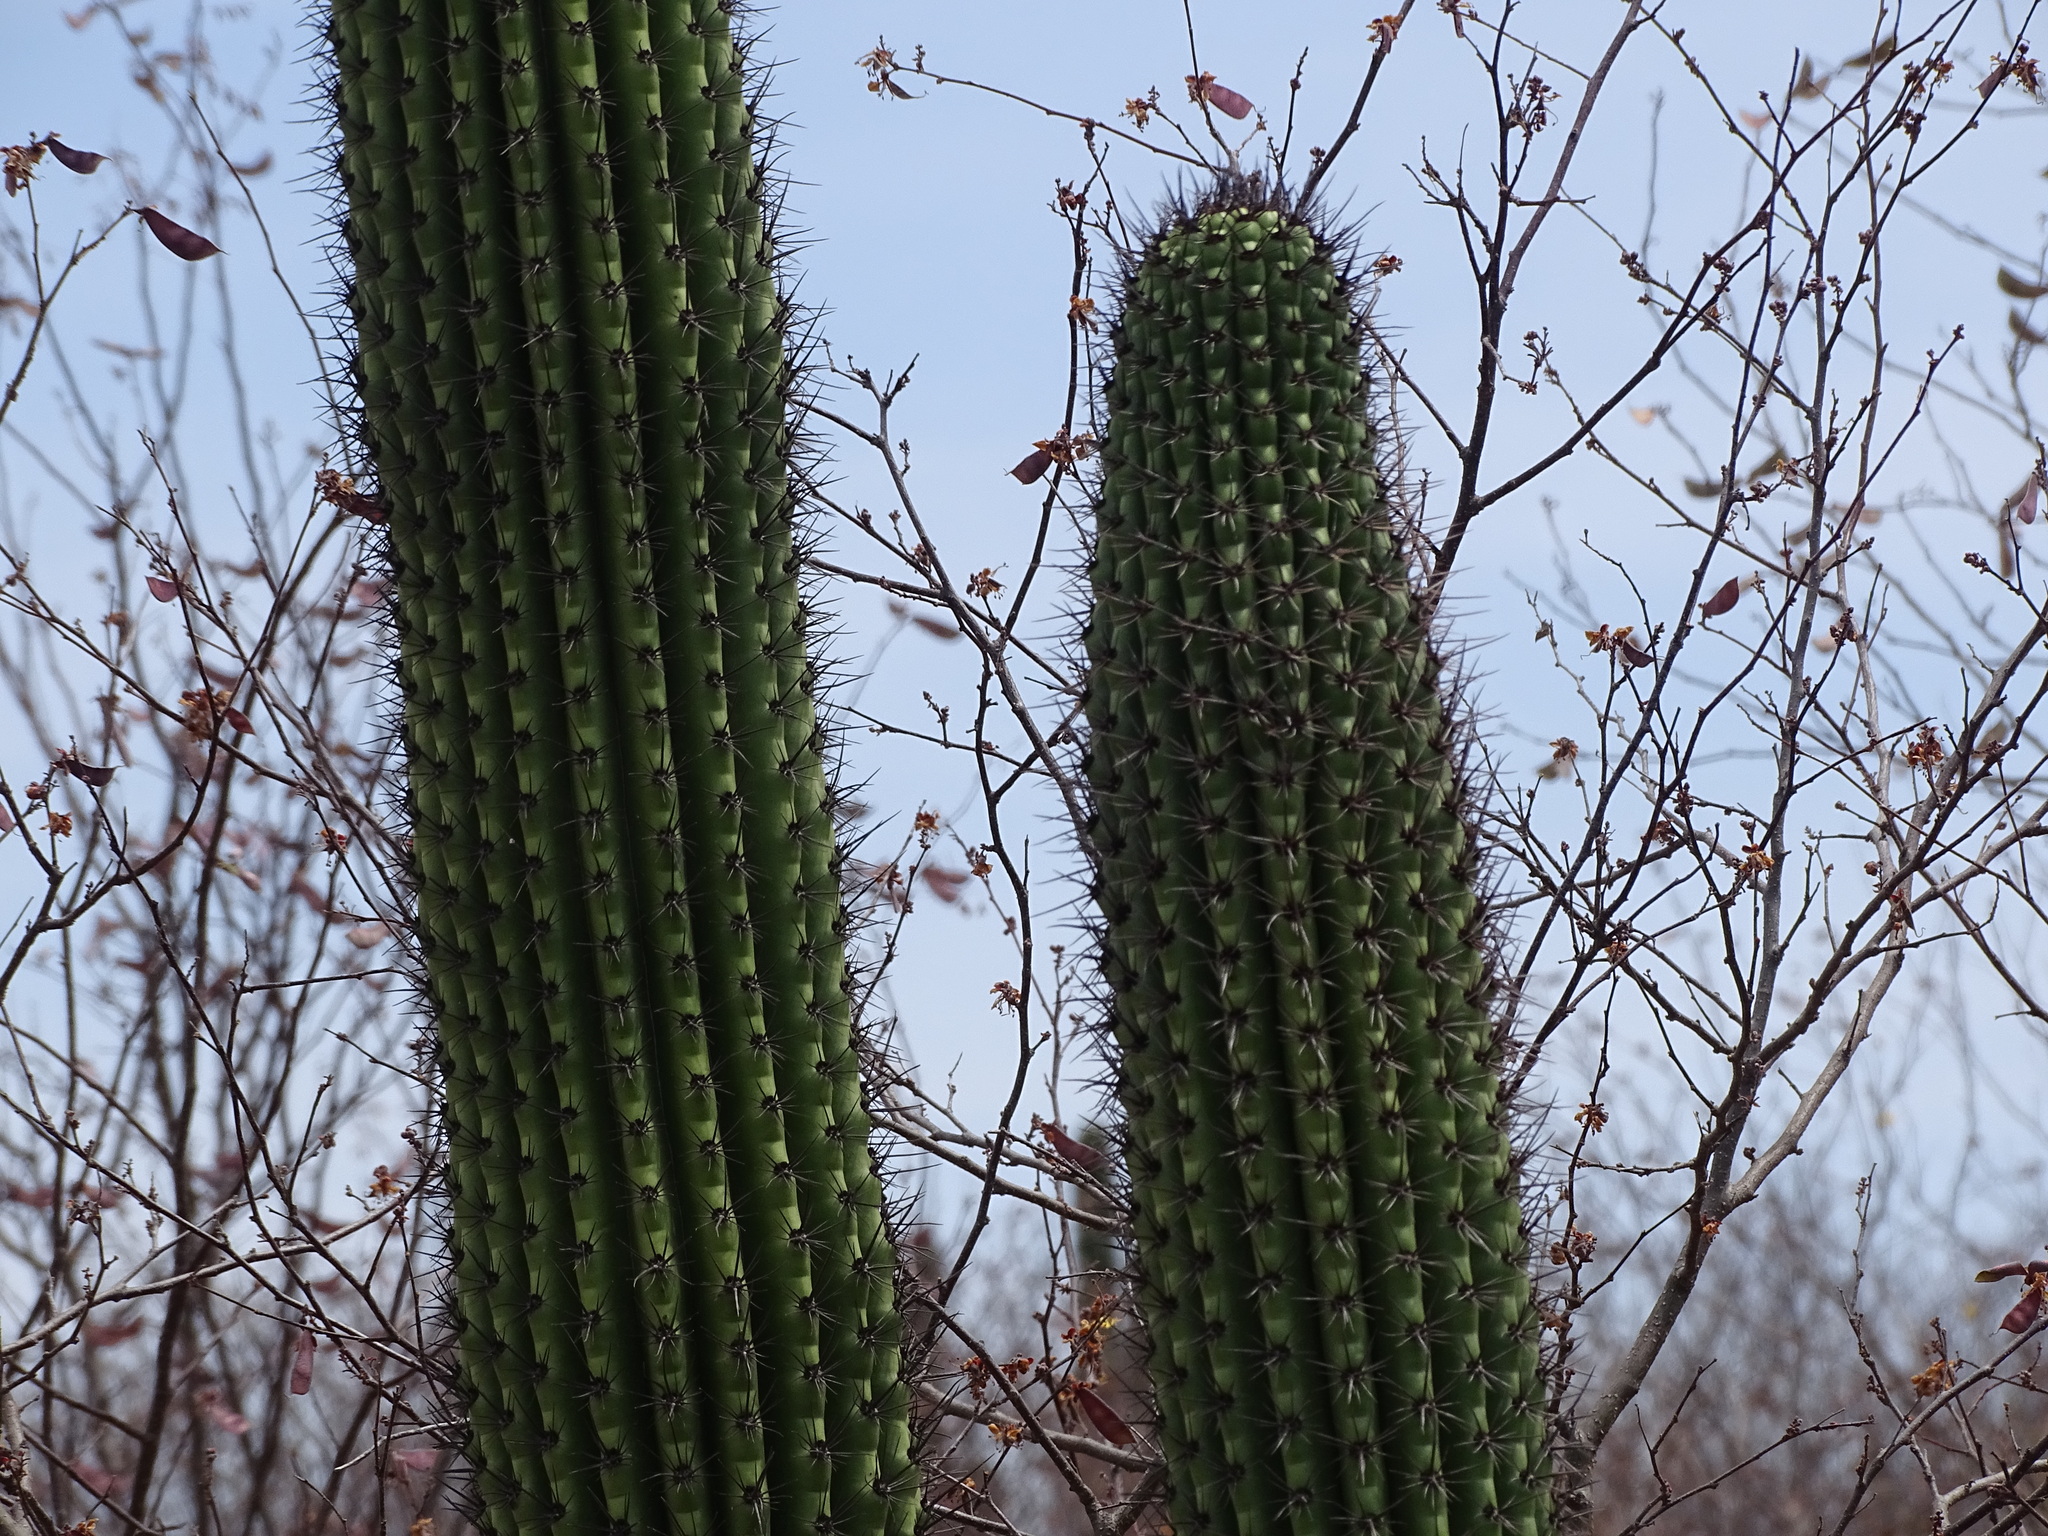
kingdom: Plantae
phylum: Tracheophyta
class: Magnoliopsida
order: Caryophyllales
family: Cactaceae
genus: Stenocereus
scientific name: Stenocereus thurberi
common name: Organ pipe cactus
